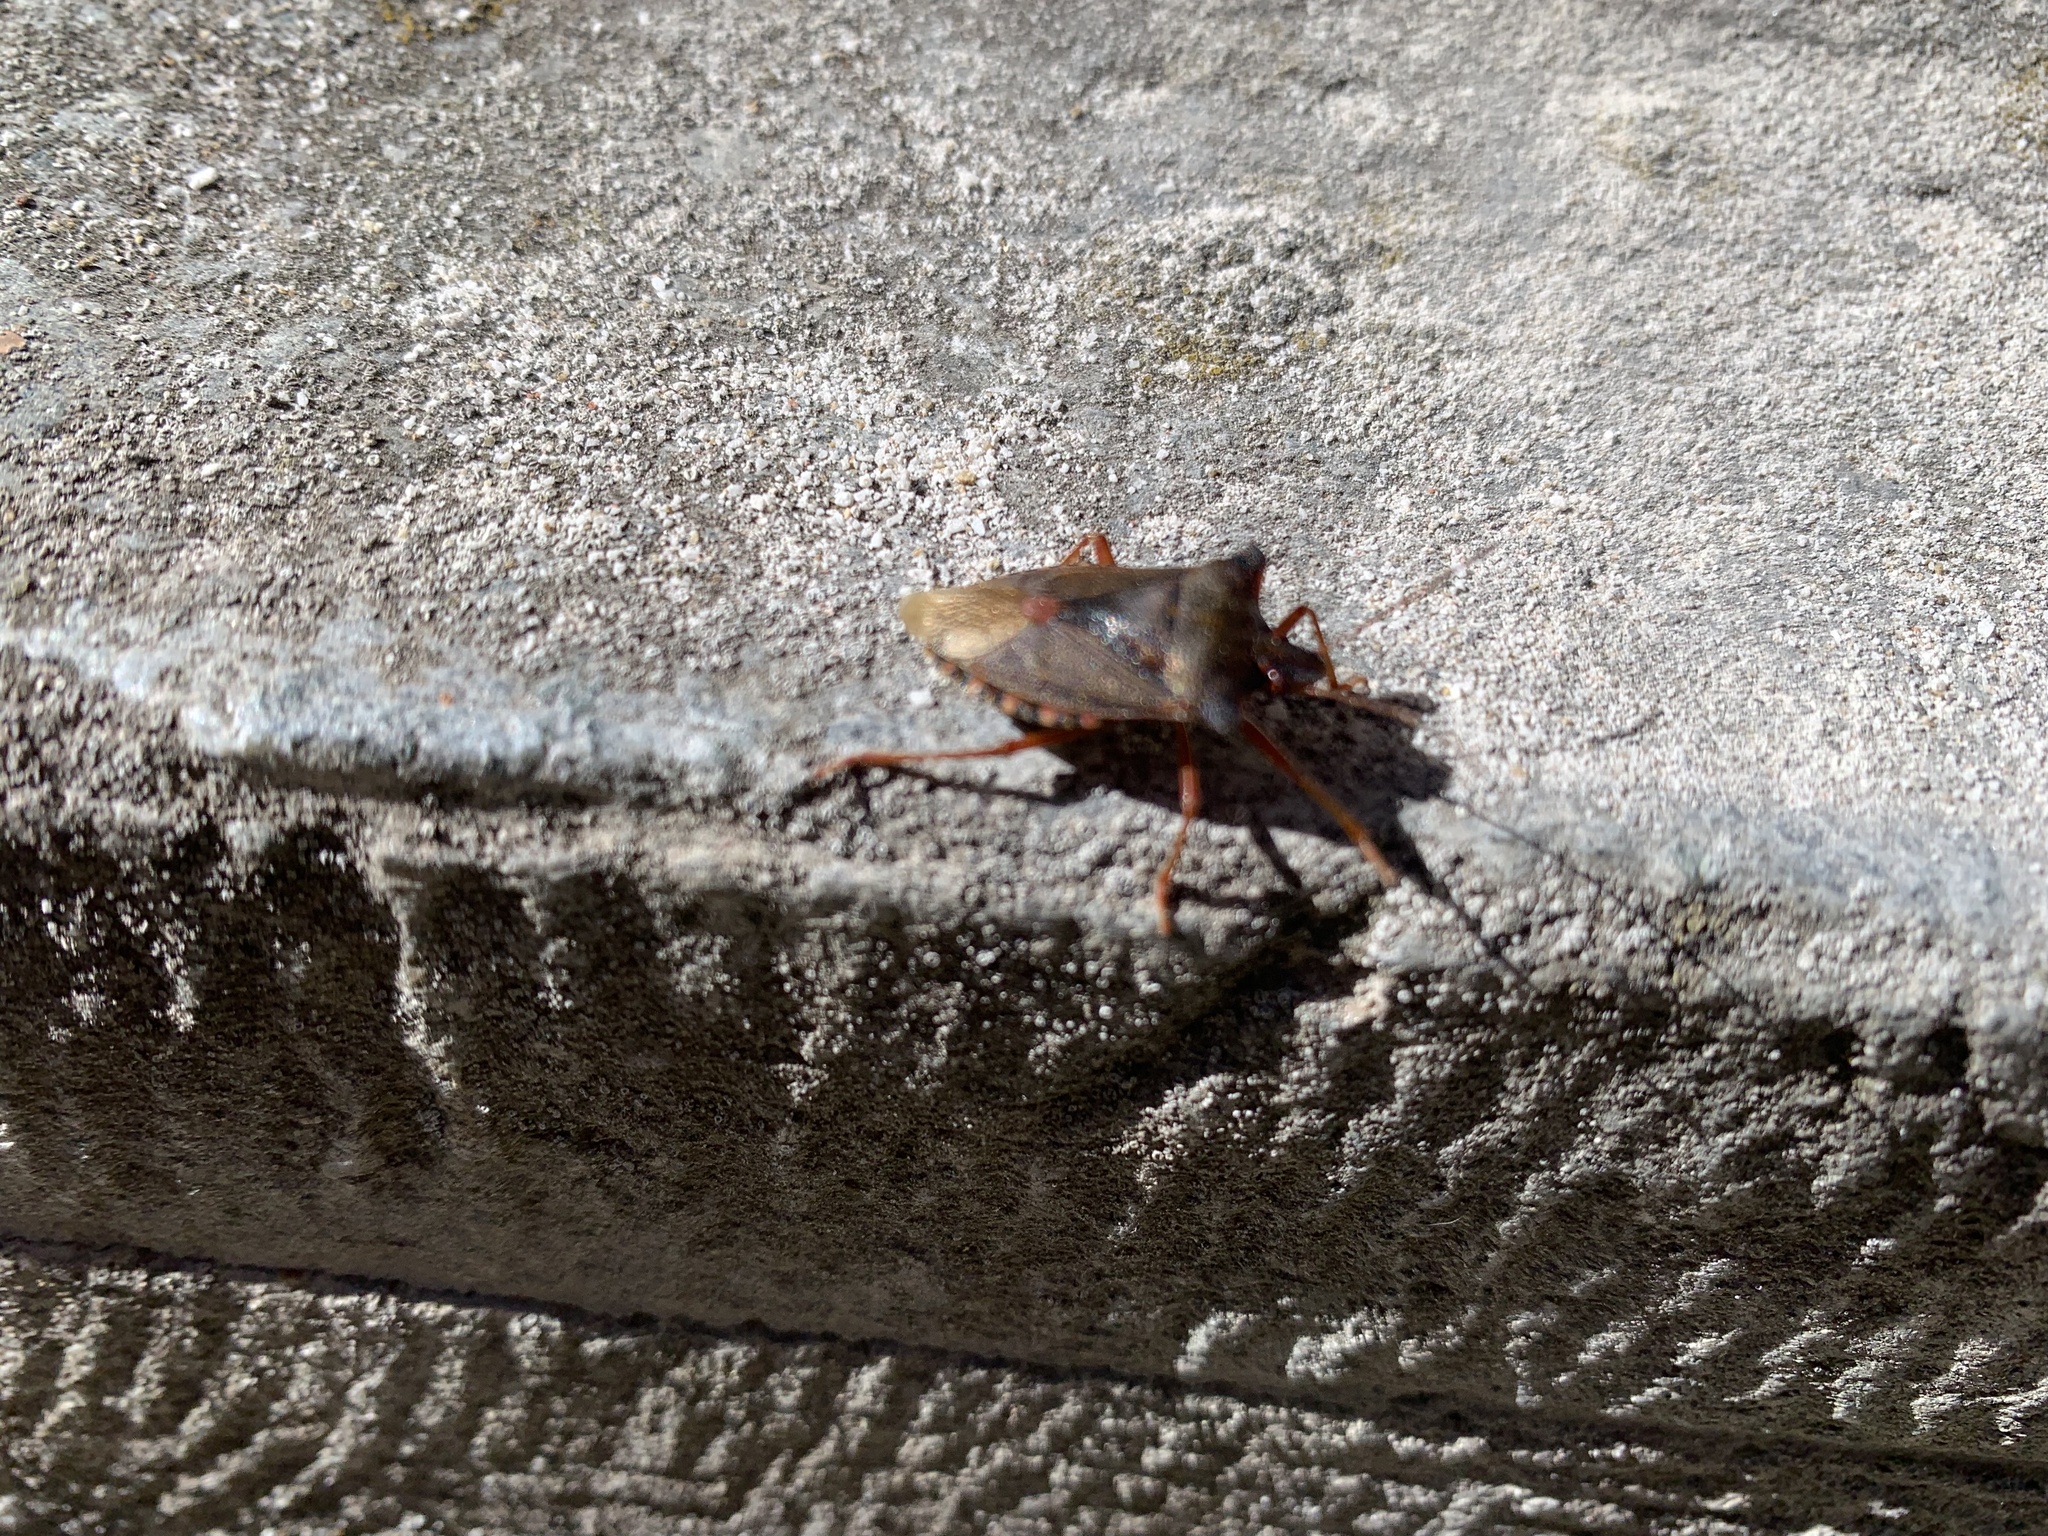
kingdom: Animalia
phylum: Arthropoda
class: Insecta
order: Hemiptera
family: Pentatomidae
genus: Pentatoma
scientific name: Pentatoma rufipes
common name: Forest bug
